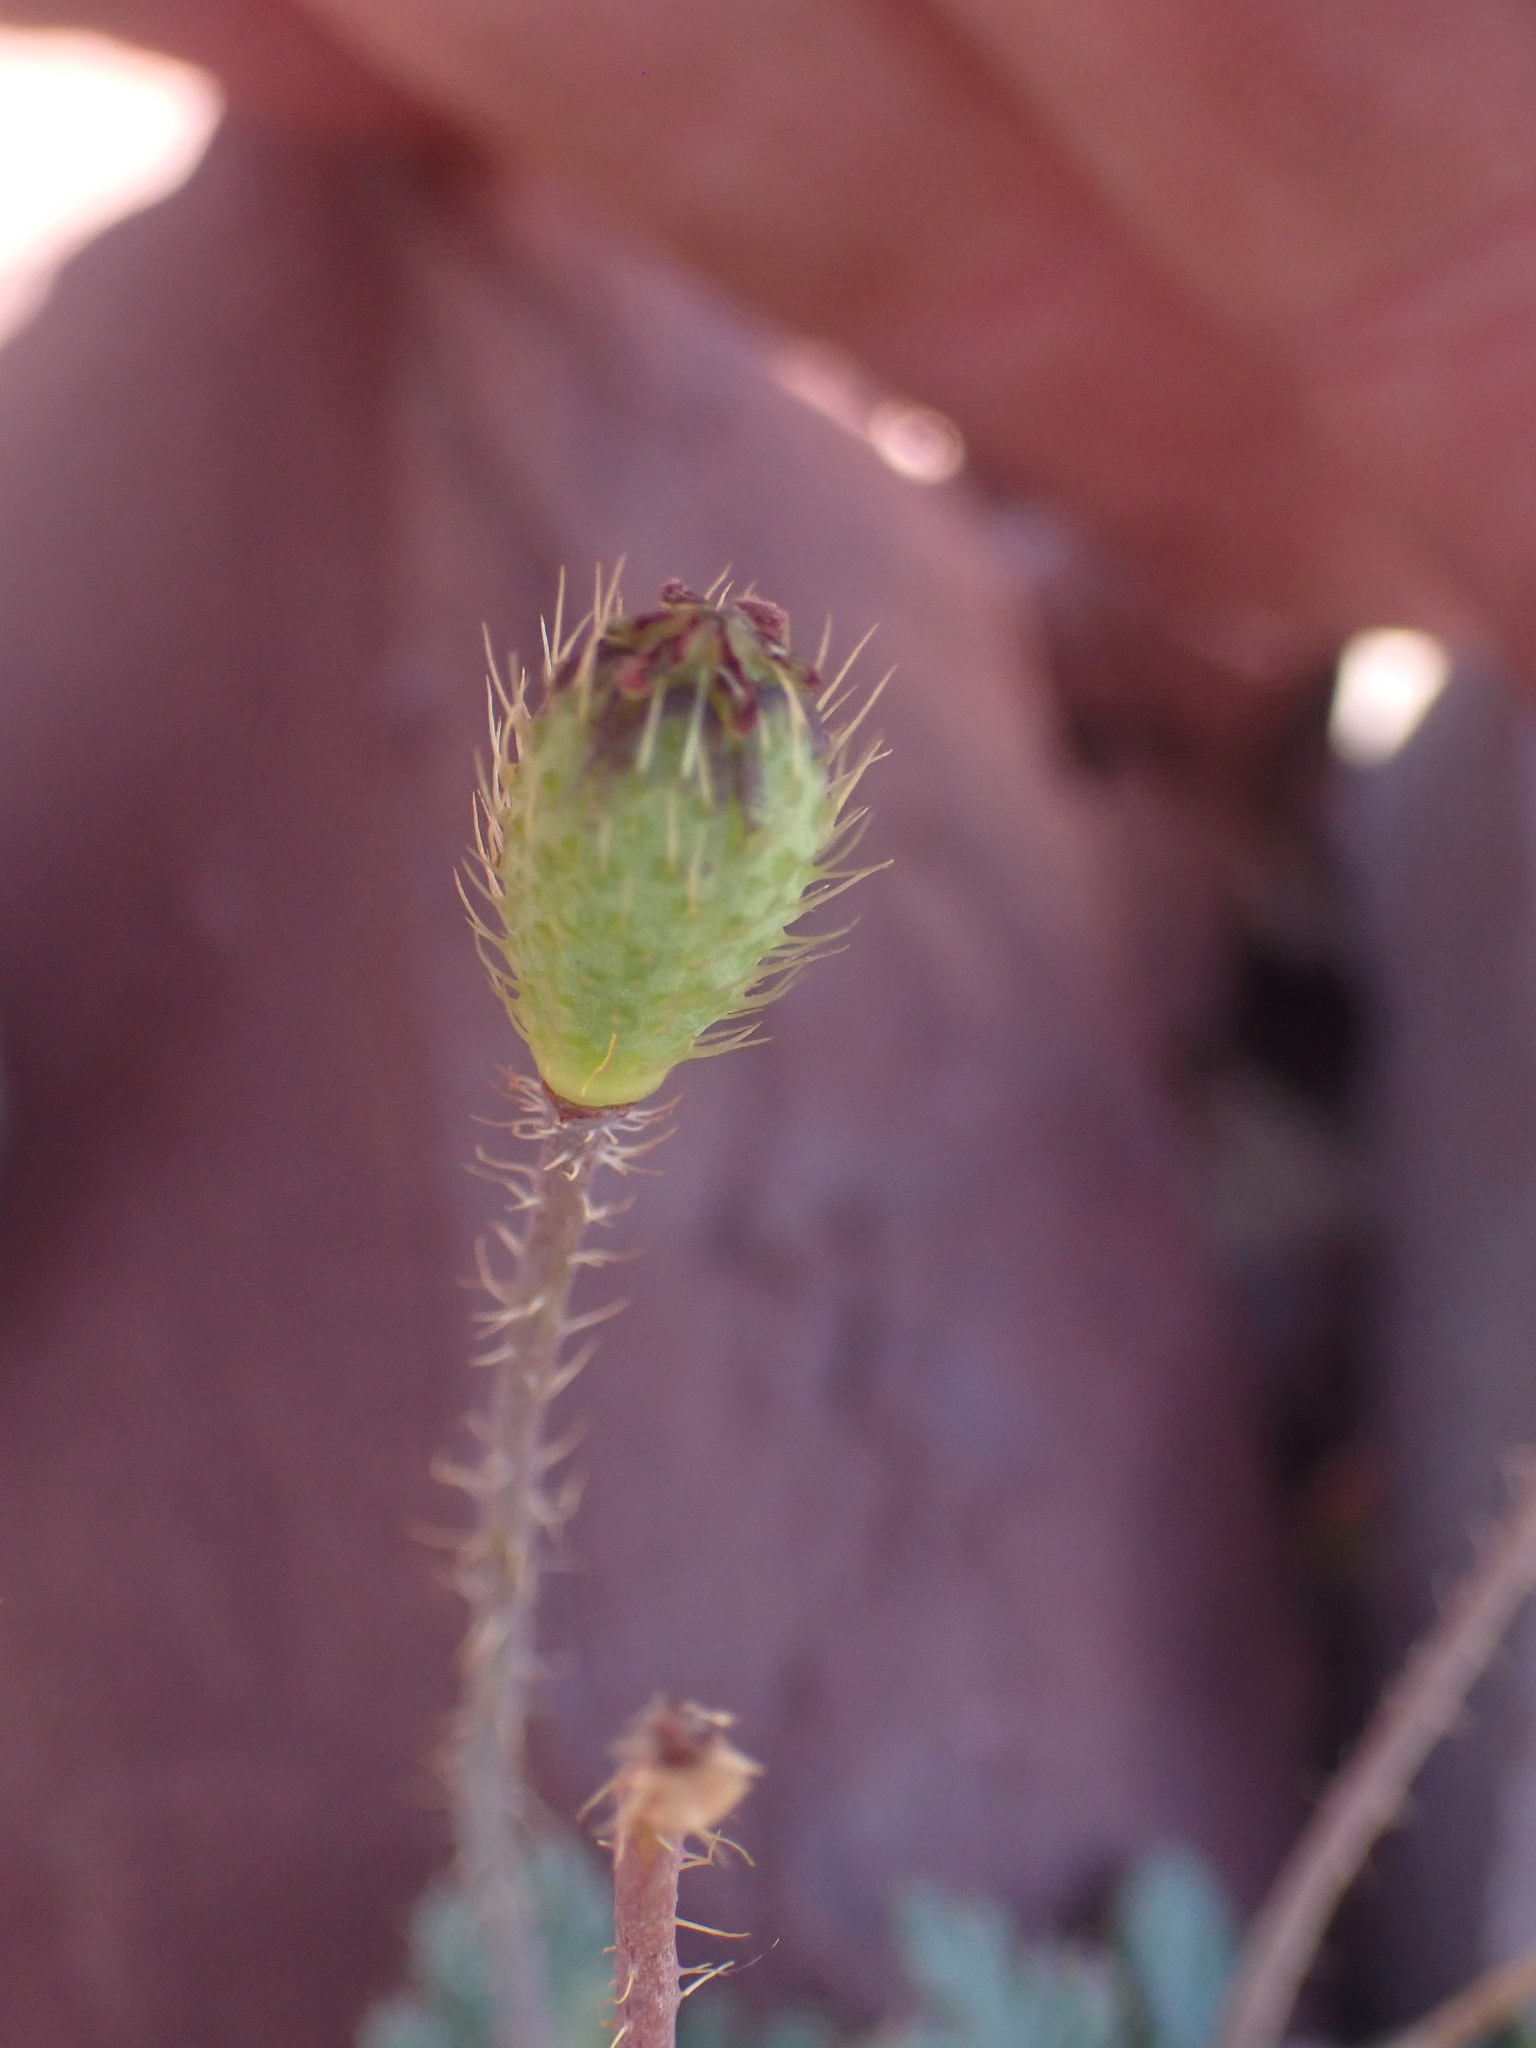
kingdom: Plantae
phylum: Tracheophyta
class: Magnoliopsida
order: Ranunculales
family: Papaveraceae
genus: Papaver
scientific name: Papaver pygmaeum
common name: Alpine glacier poppy
